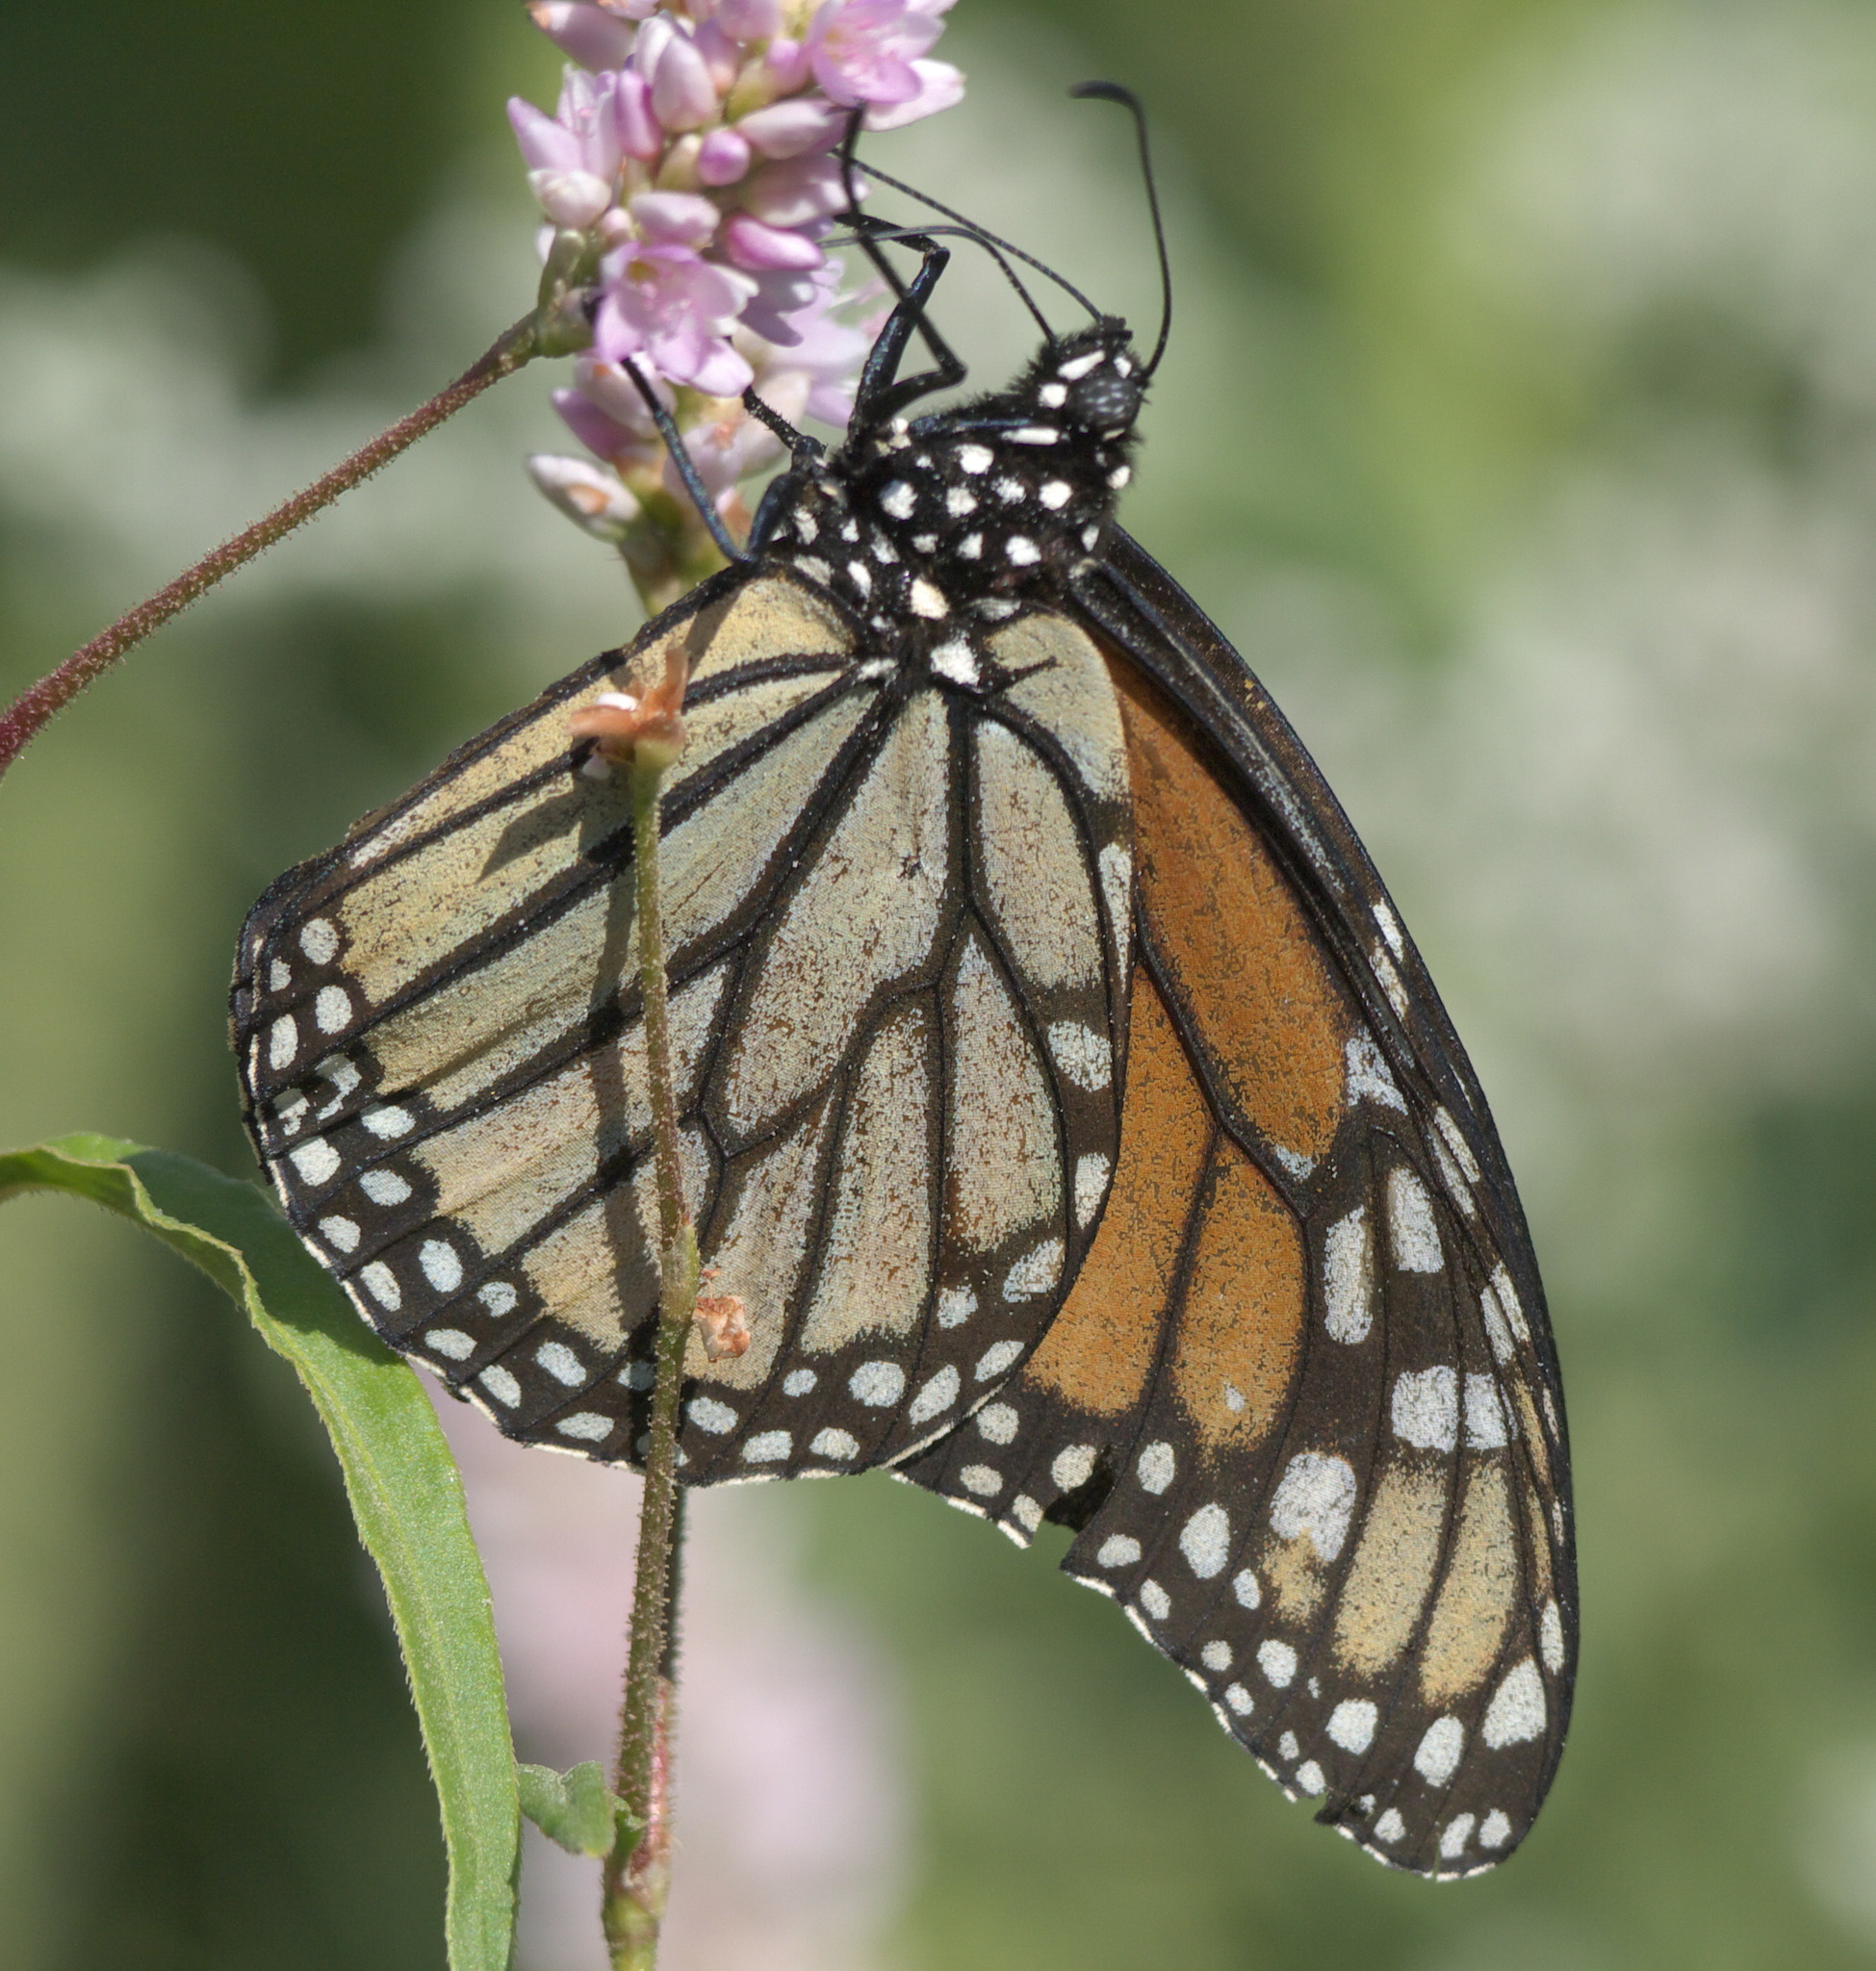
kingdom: Animalia
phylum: Arthropoda
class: Insecta
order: Lepidoptera
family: Nymphalidae
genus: Danaus
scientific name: Danaus plexippus
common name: Monarch
